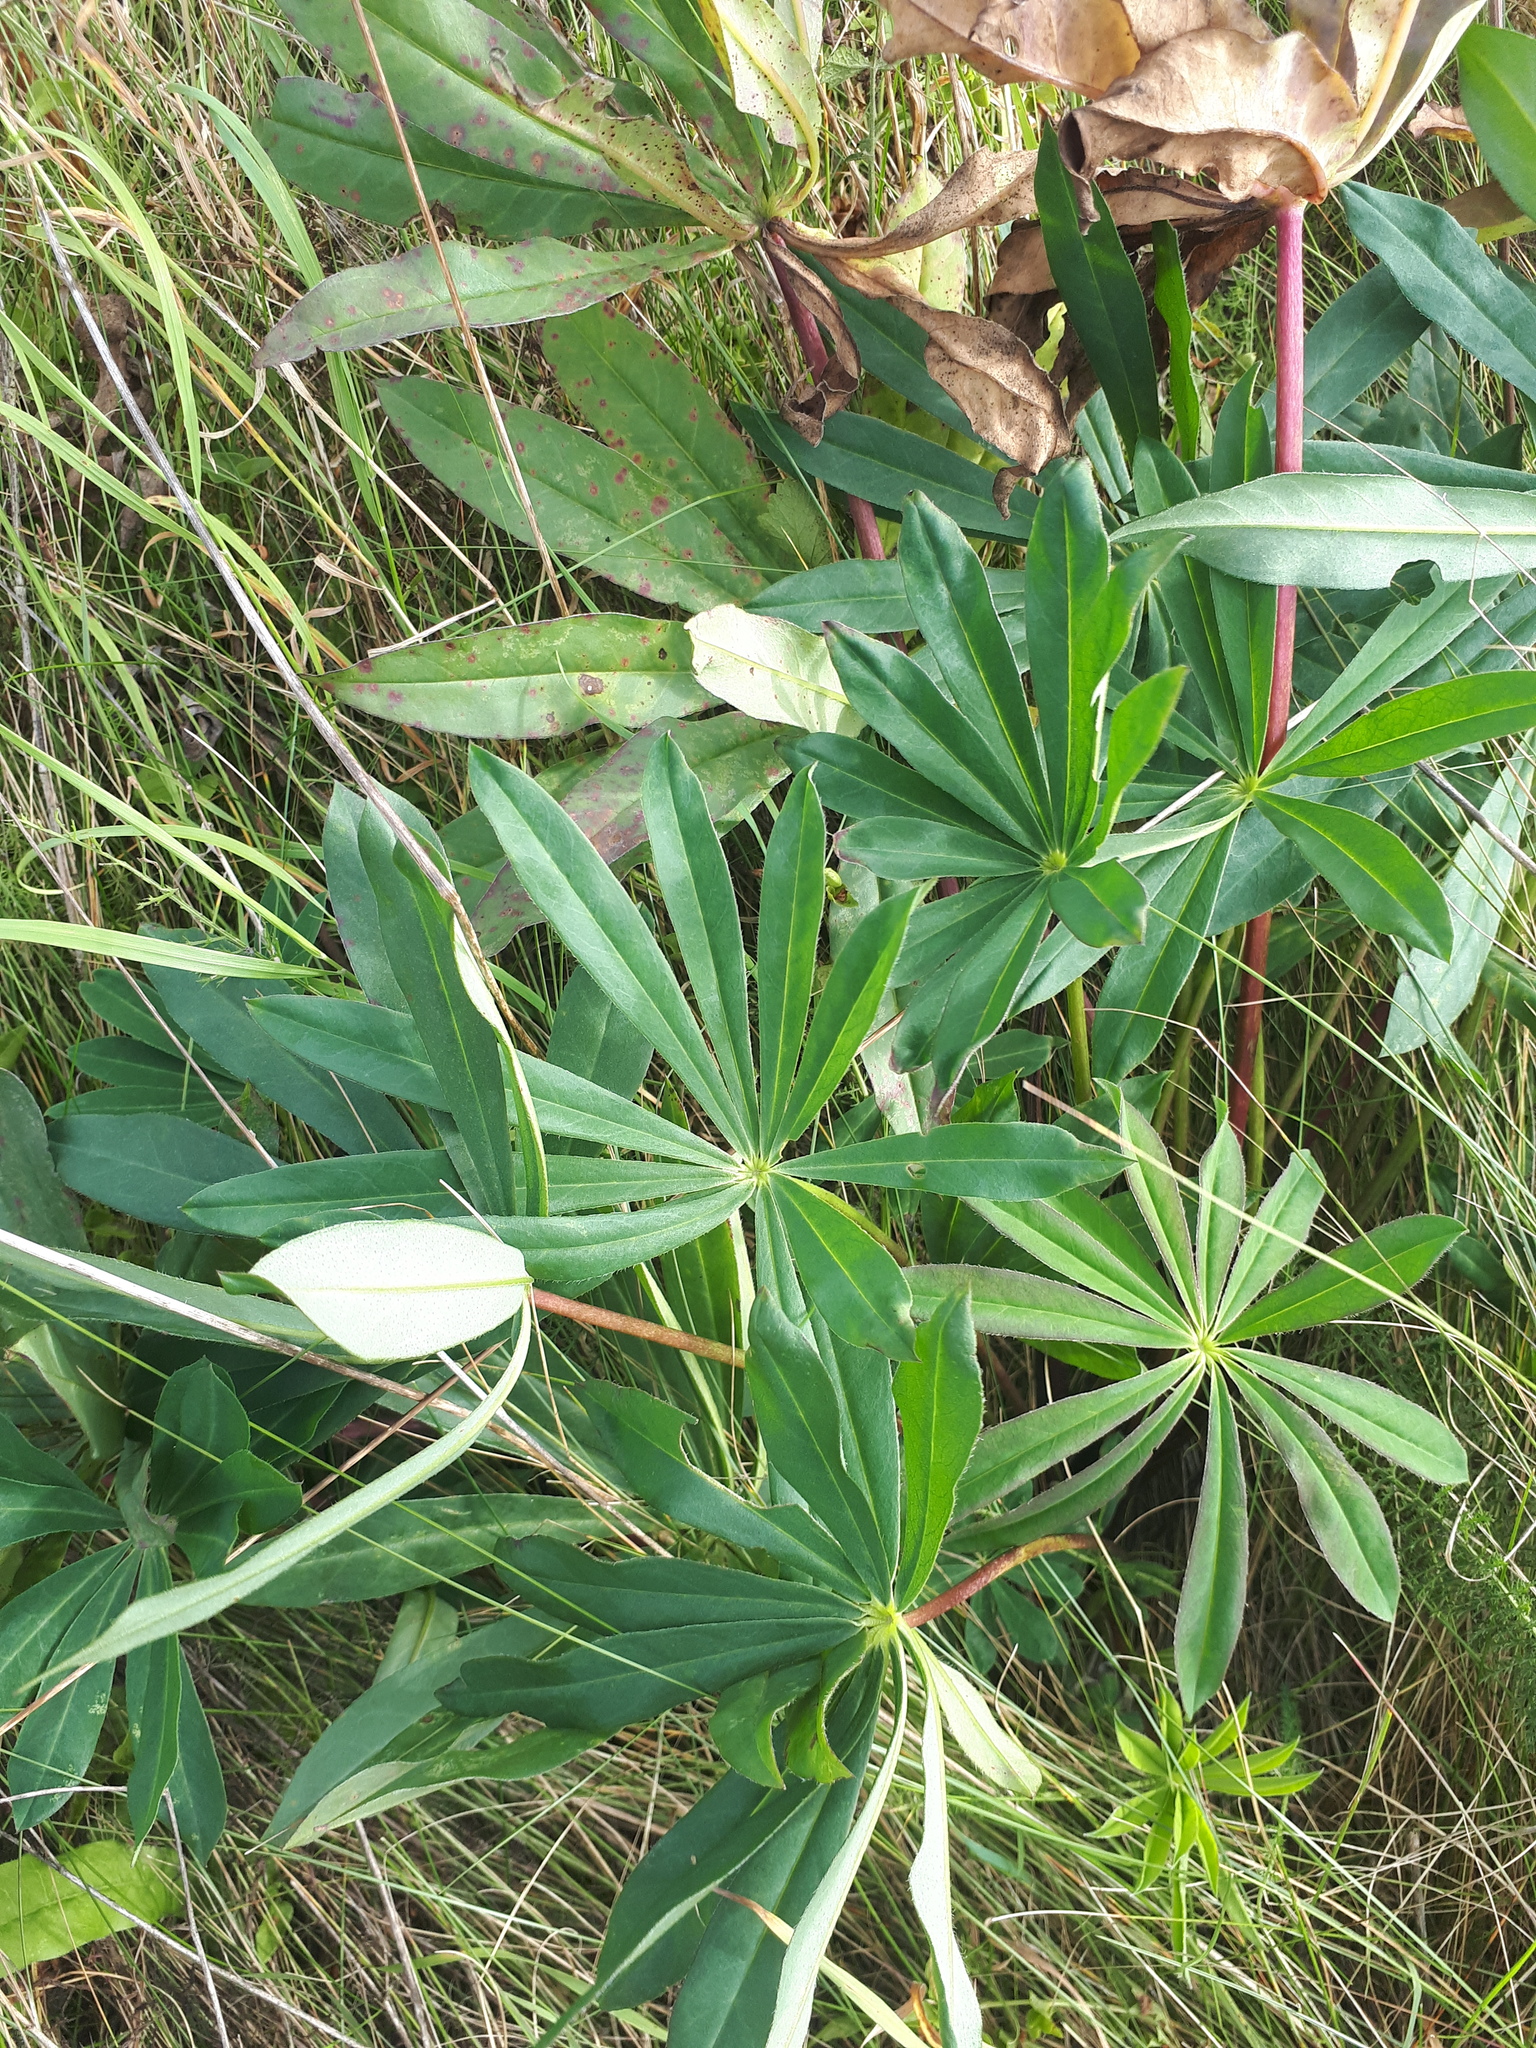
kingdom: Plantae
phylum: Tracheophyta
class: Magnoliopsida
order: Fabales
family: Fabaceae
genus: Lupinus
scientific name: Lupinus polyphyllus
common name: Garden lupin
